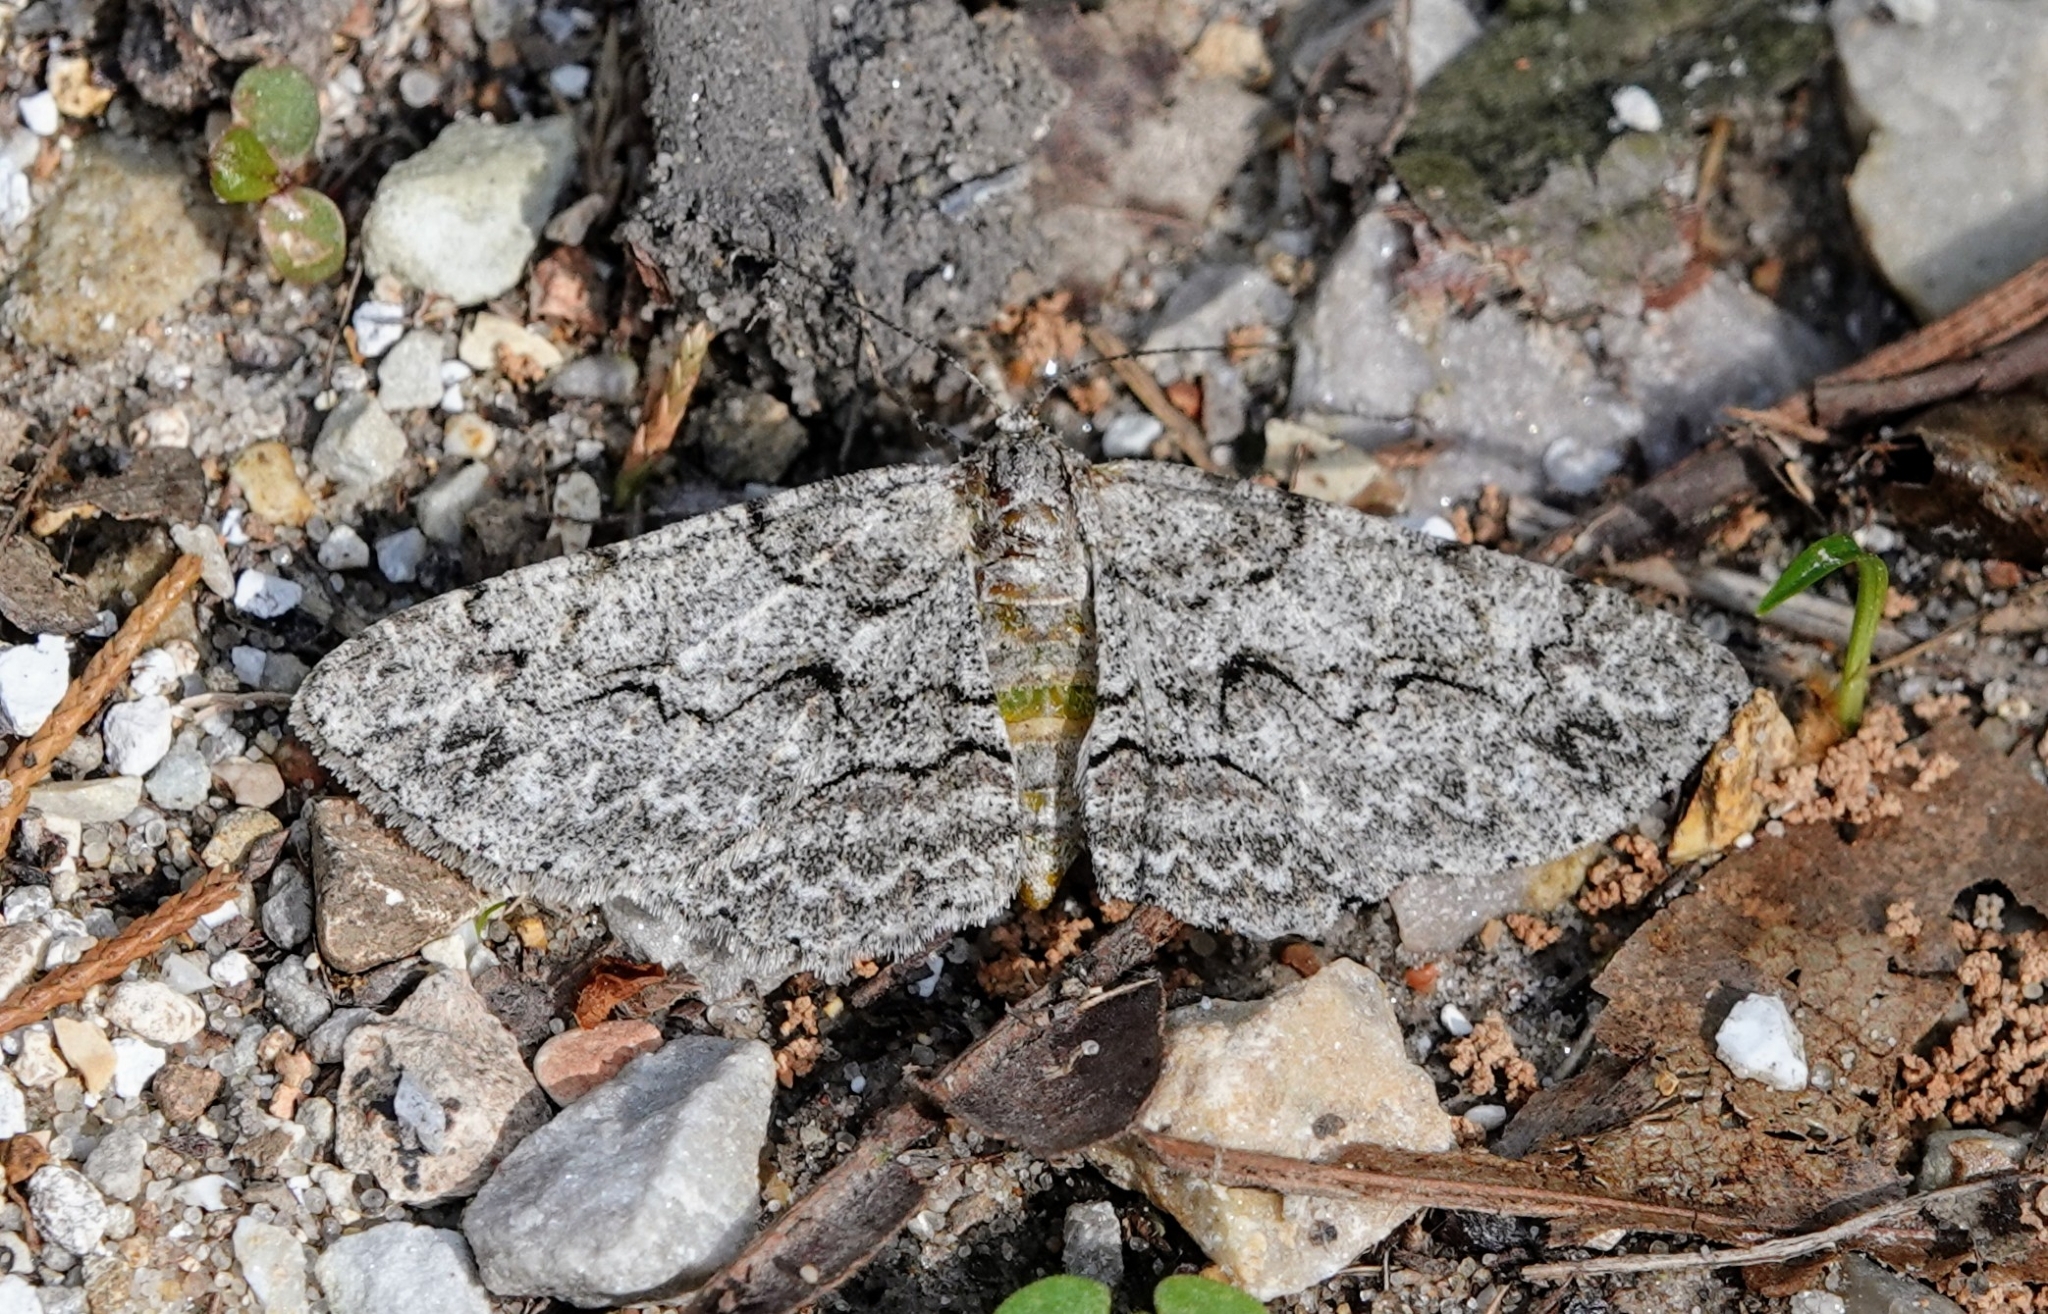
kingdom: Animalia
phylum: Arthropoda
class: Insecta
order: Lepidoptera
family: Geometridae
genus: Iridopsis
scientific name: Iridopsis defectaria
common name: Brown-shaded gray
